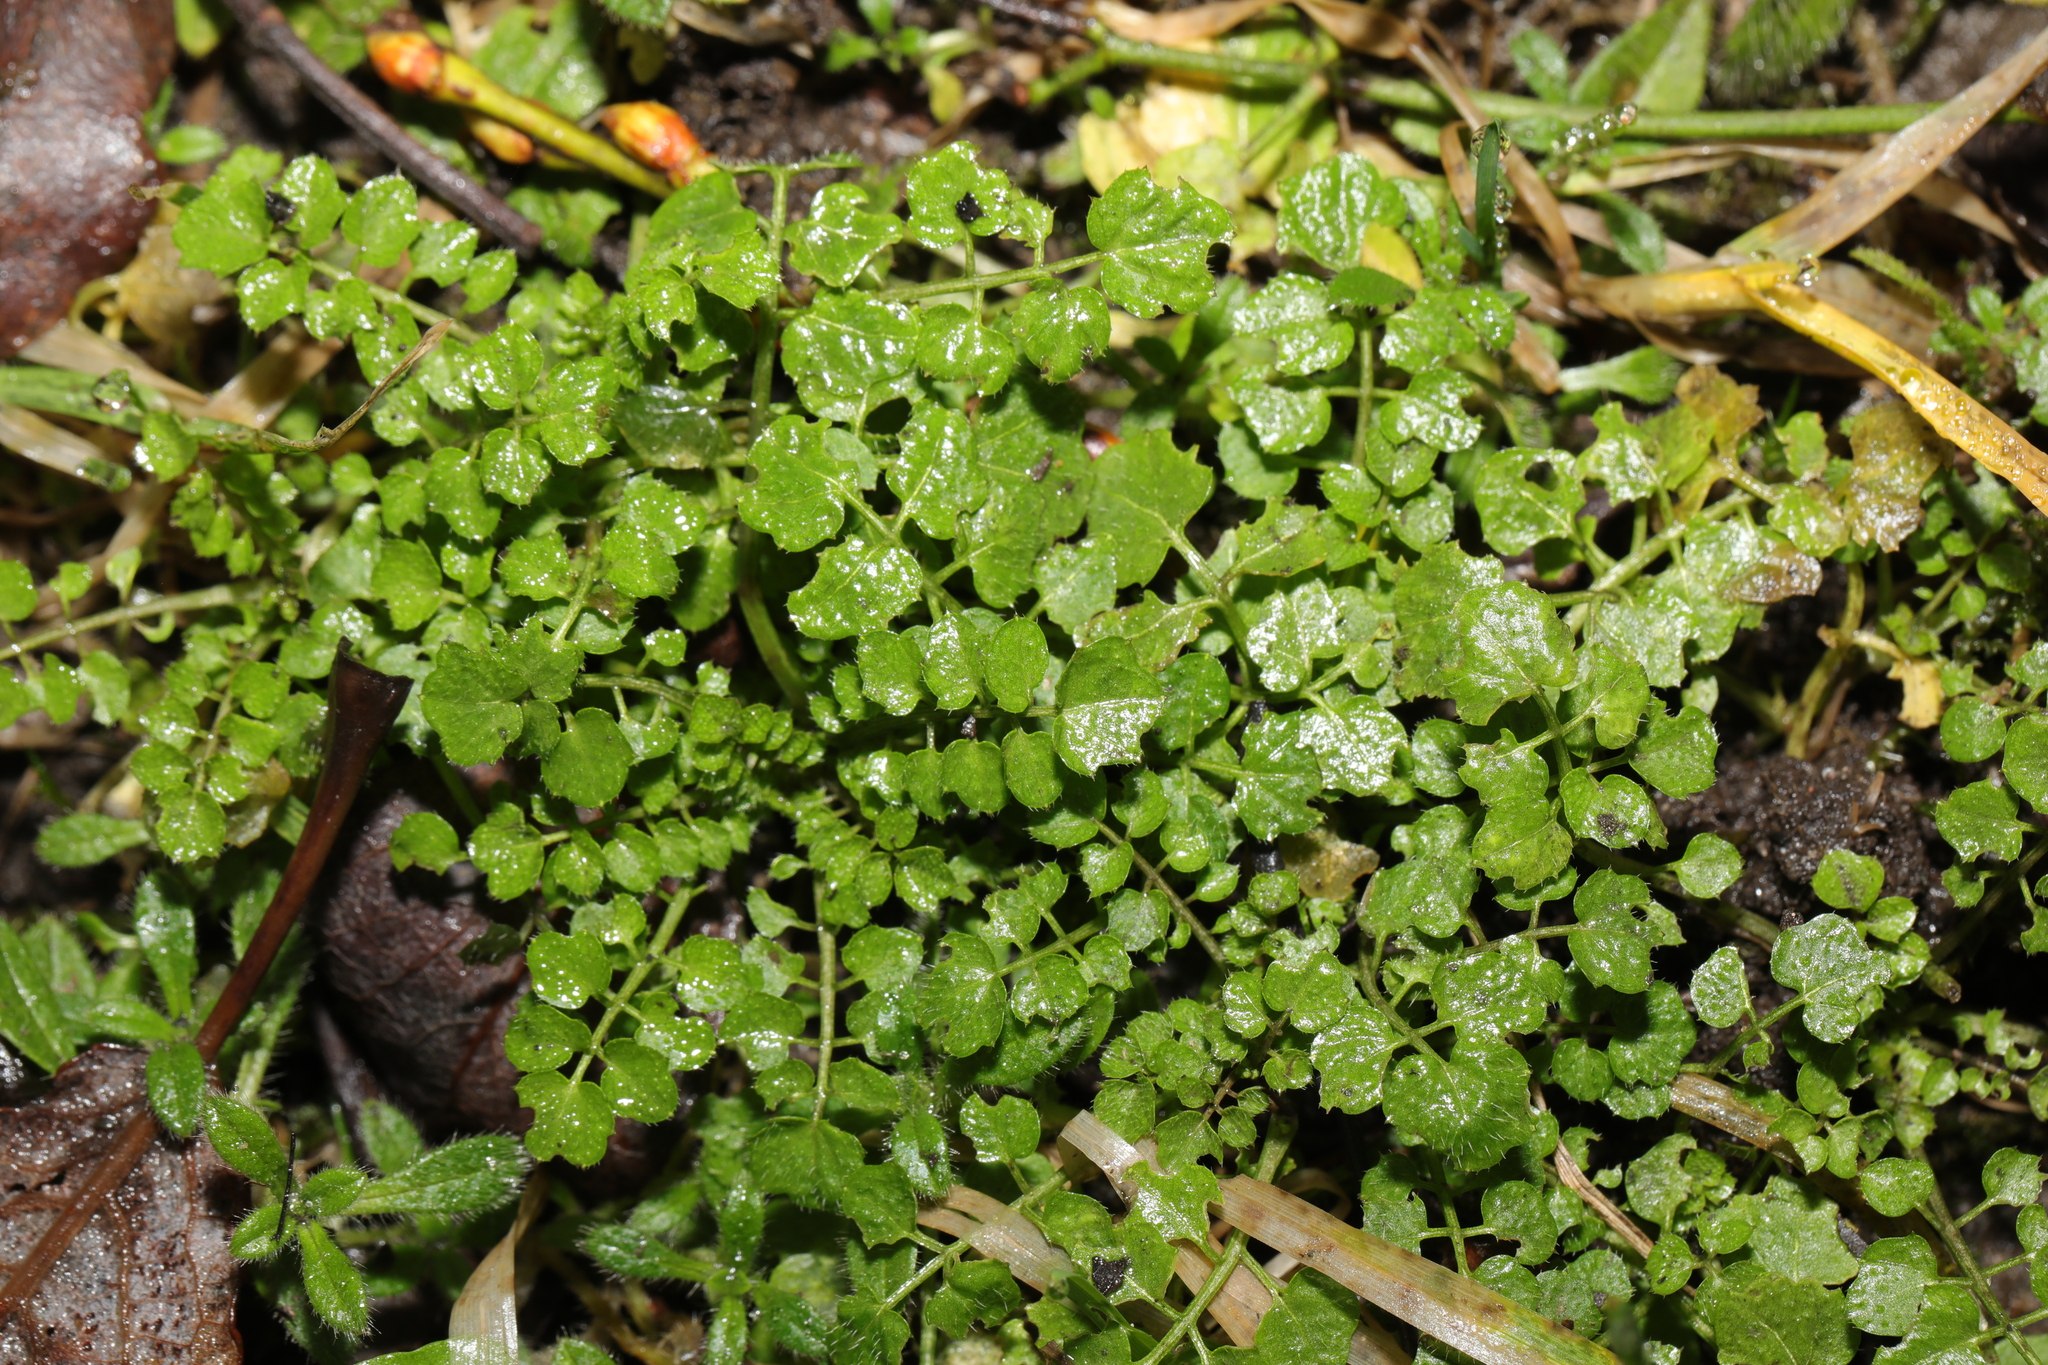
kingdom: Plantae
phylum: Tracheophyta
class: Magnoliopsida
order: Brassicales
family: Brassicaceae
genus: Cardamine
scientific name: Cardamine flexuosa
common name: Woodland bittercress
